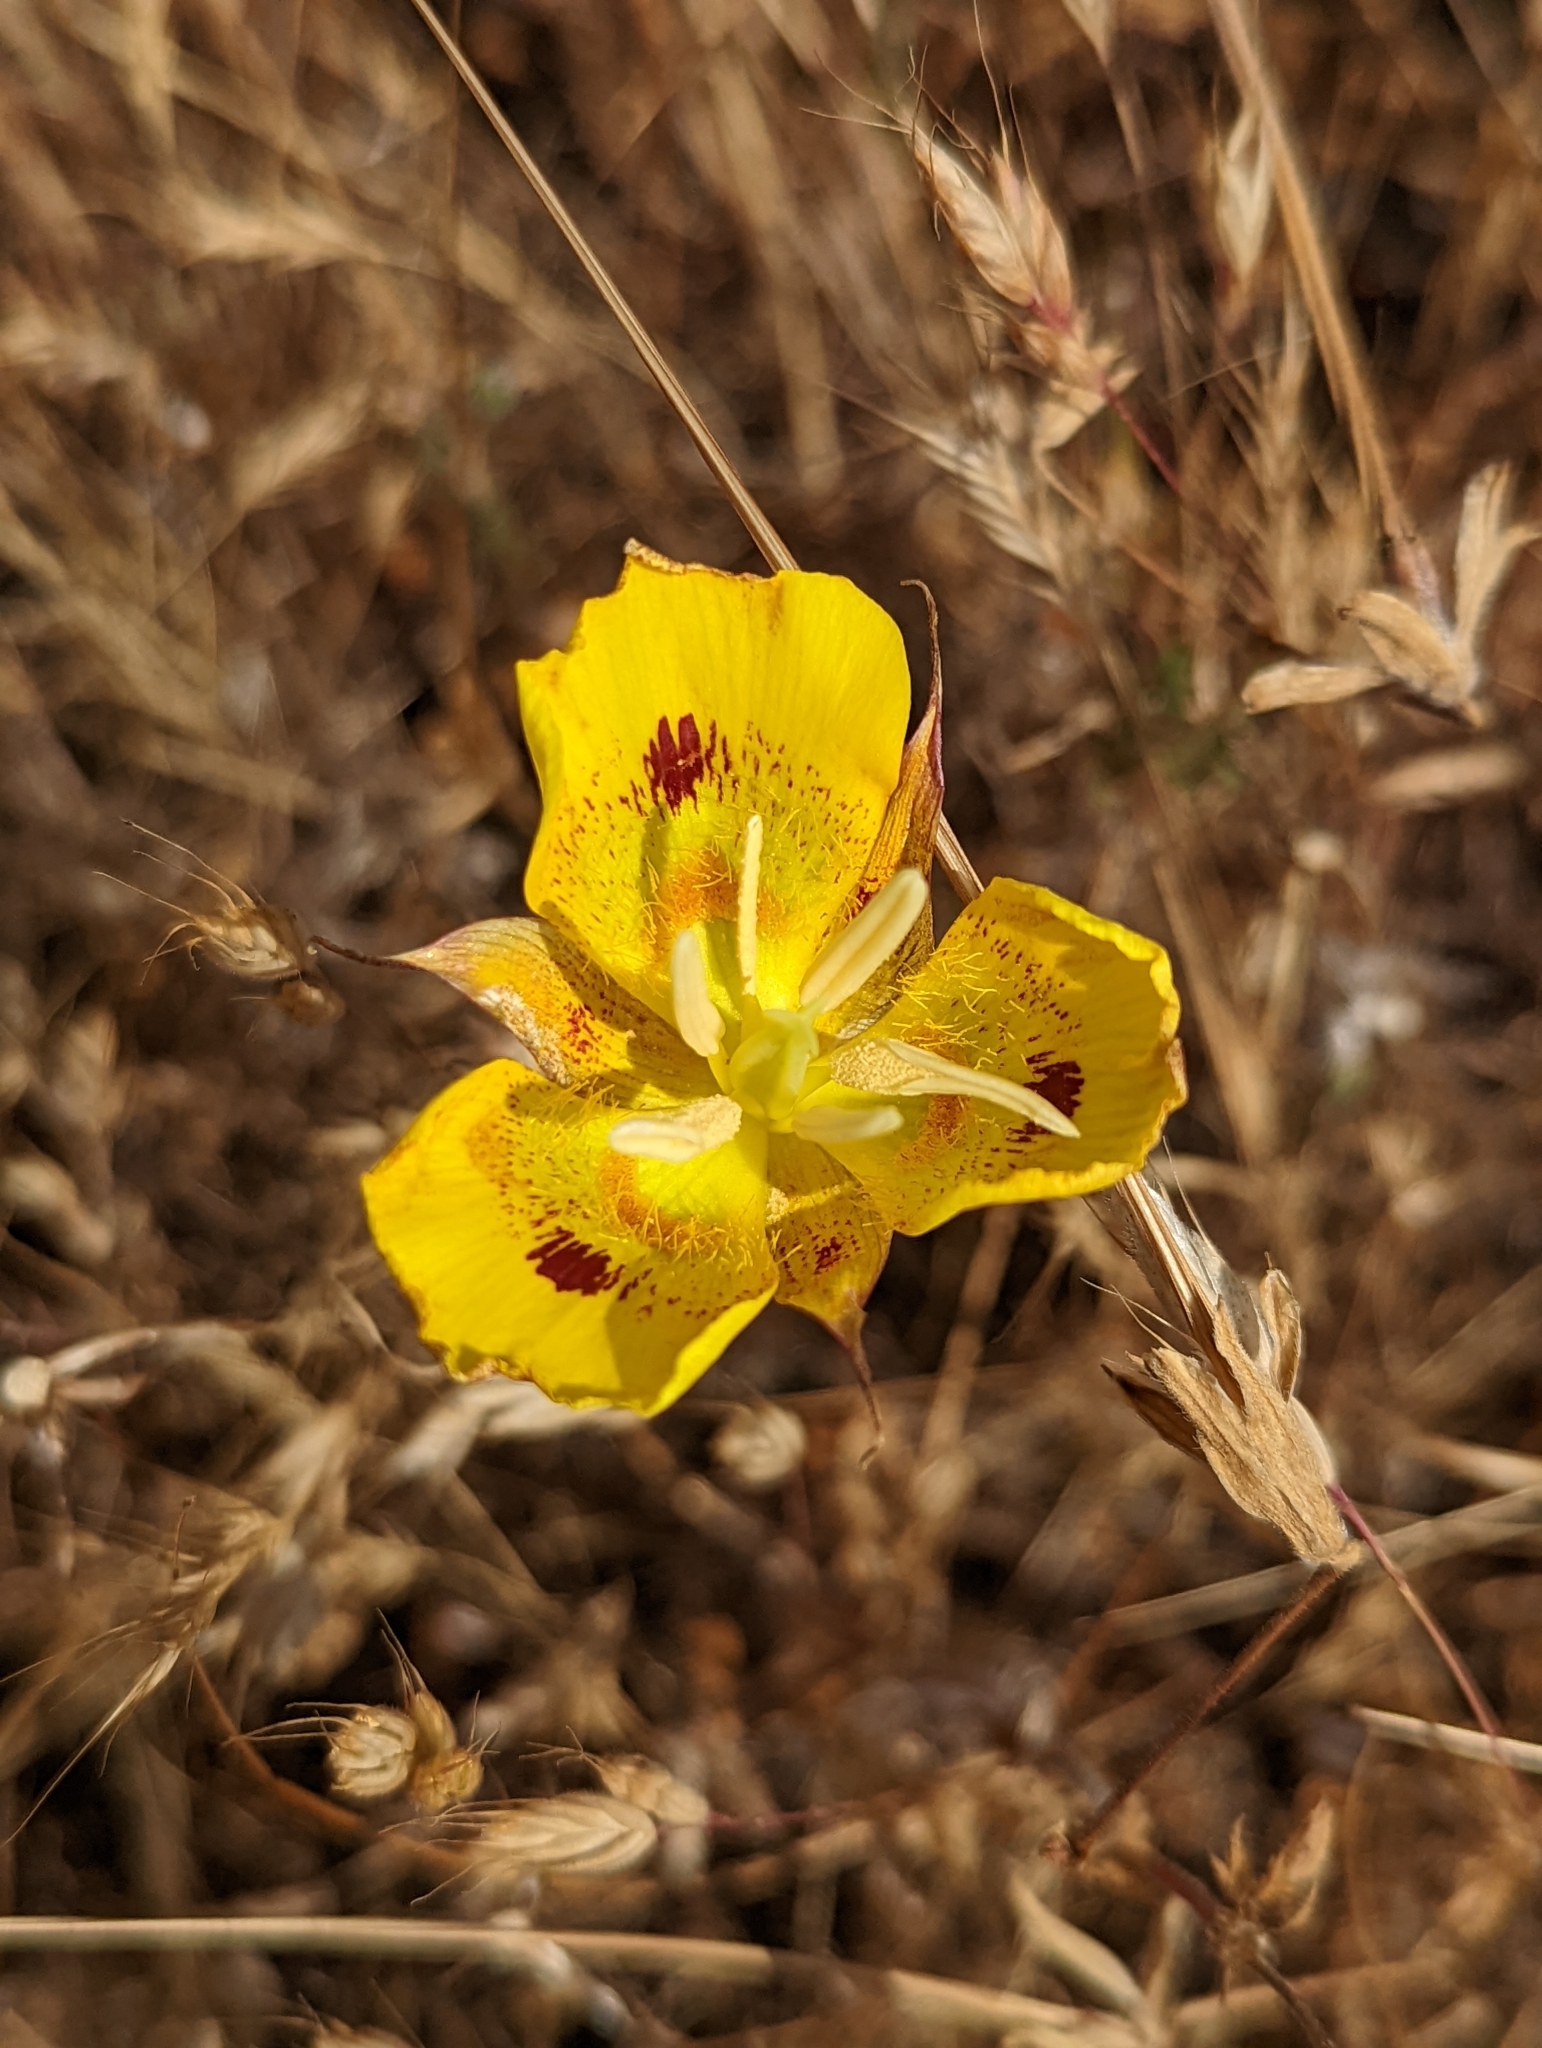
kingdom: Plantae
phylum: Tracheophyta
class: Liliopsida
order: Liliales
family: Liliaceae
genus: Calochortus
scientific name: Calochortus luteus
